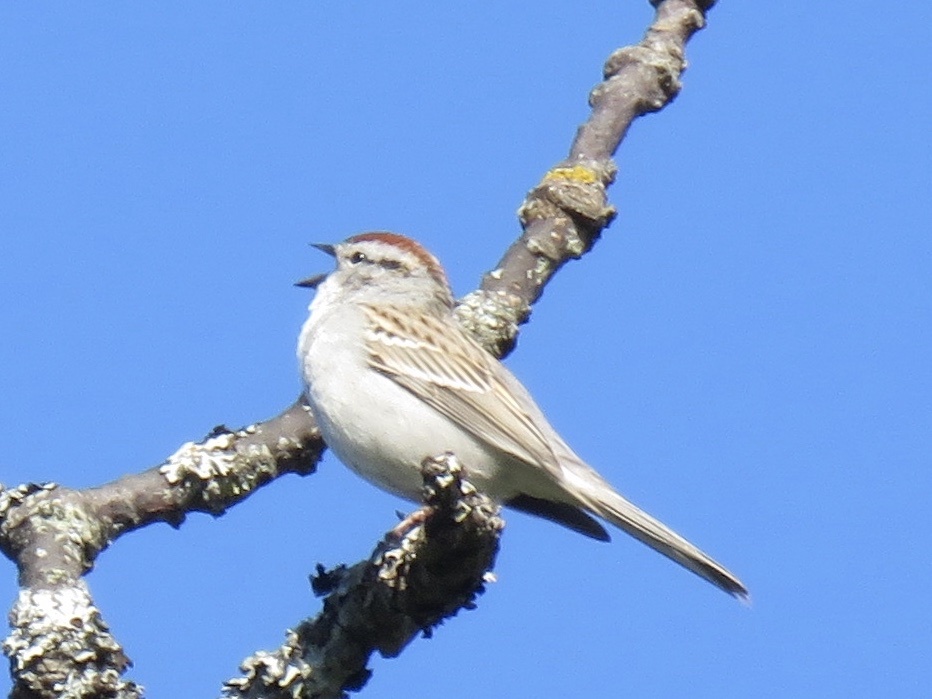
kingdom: Animalia
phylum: Chordata
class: Aves
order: Passeriformes
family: Passerellidae
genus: Spizella
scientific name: Spizella passerina
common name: Chipping sparrow
